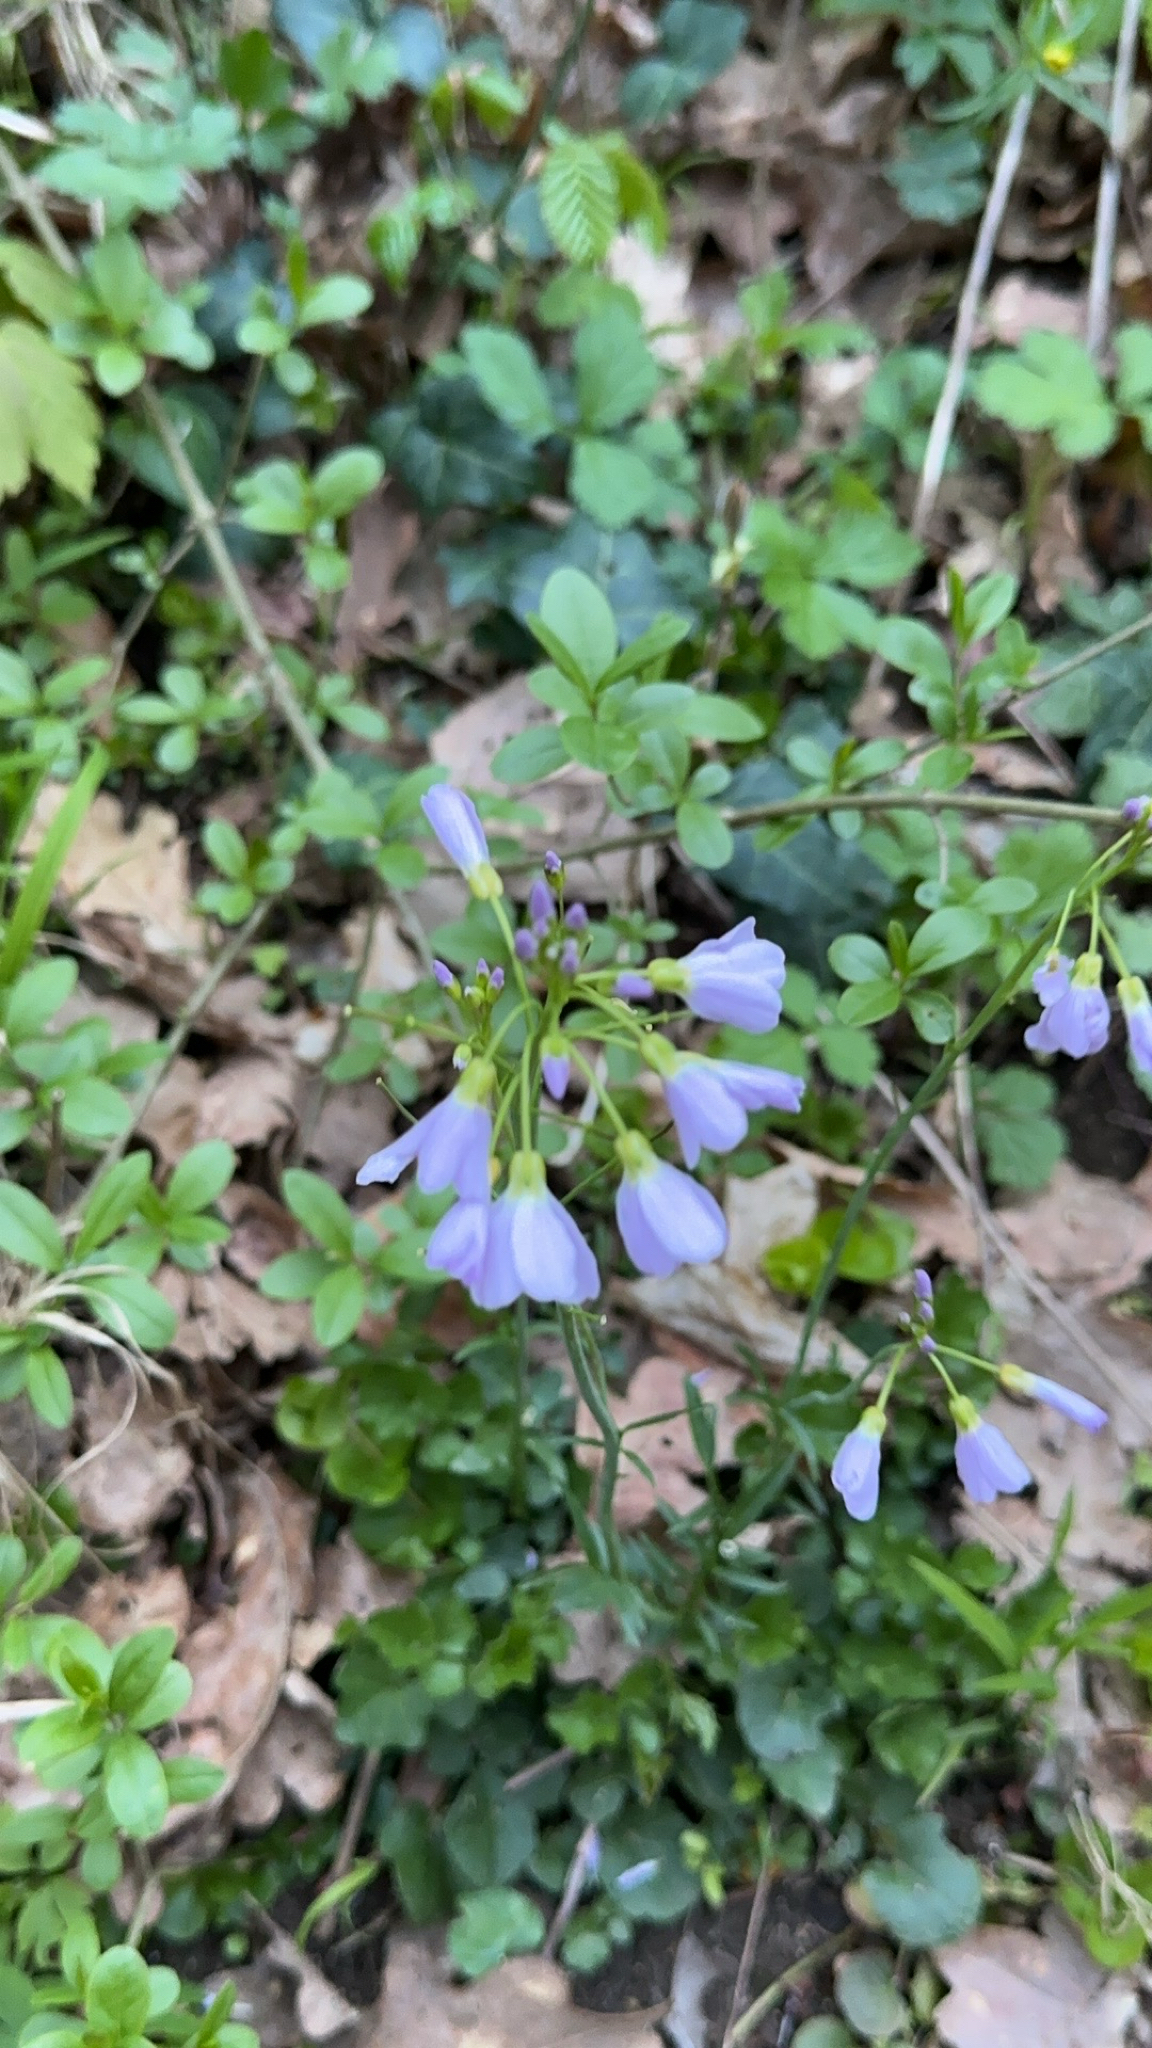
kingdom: Plantae
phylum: Tracheophyta
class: Magnoliopsida
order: Brassicales
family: Brassicaceae
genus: Cardamine
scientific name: Cardamine pratensis
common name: Cuckoo flower
